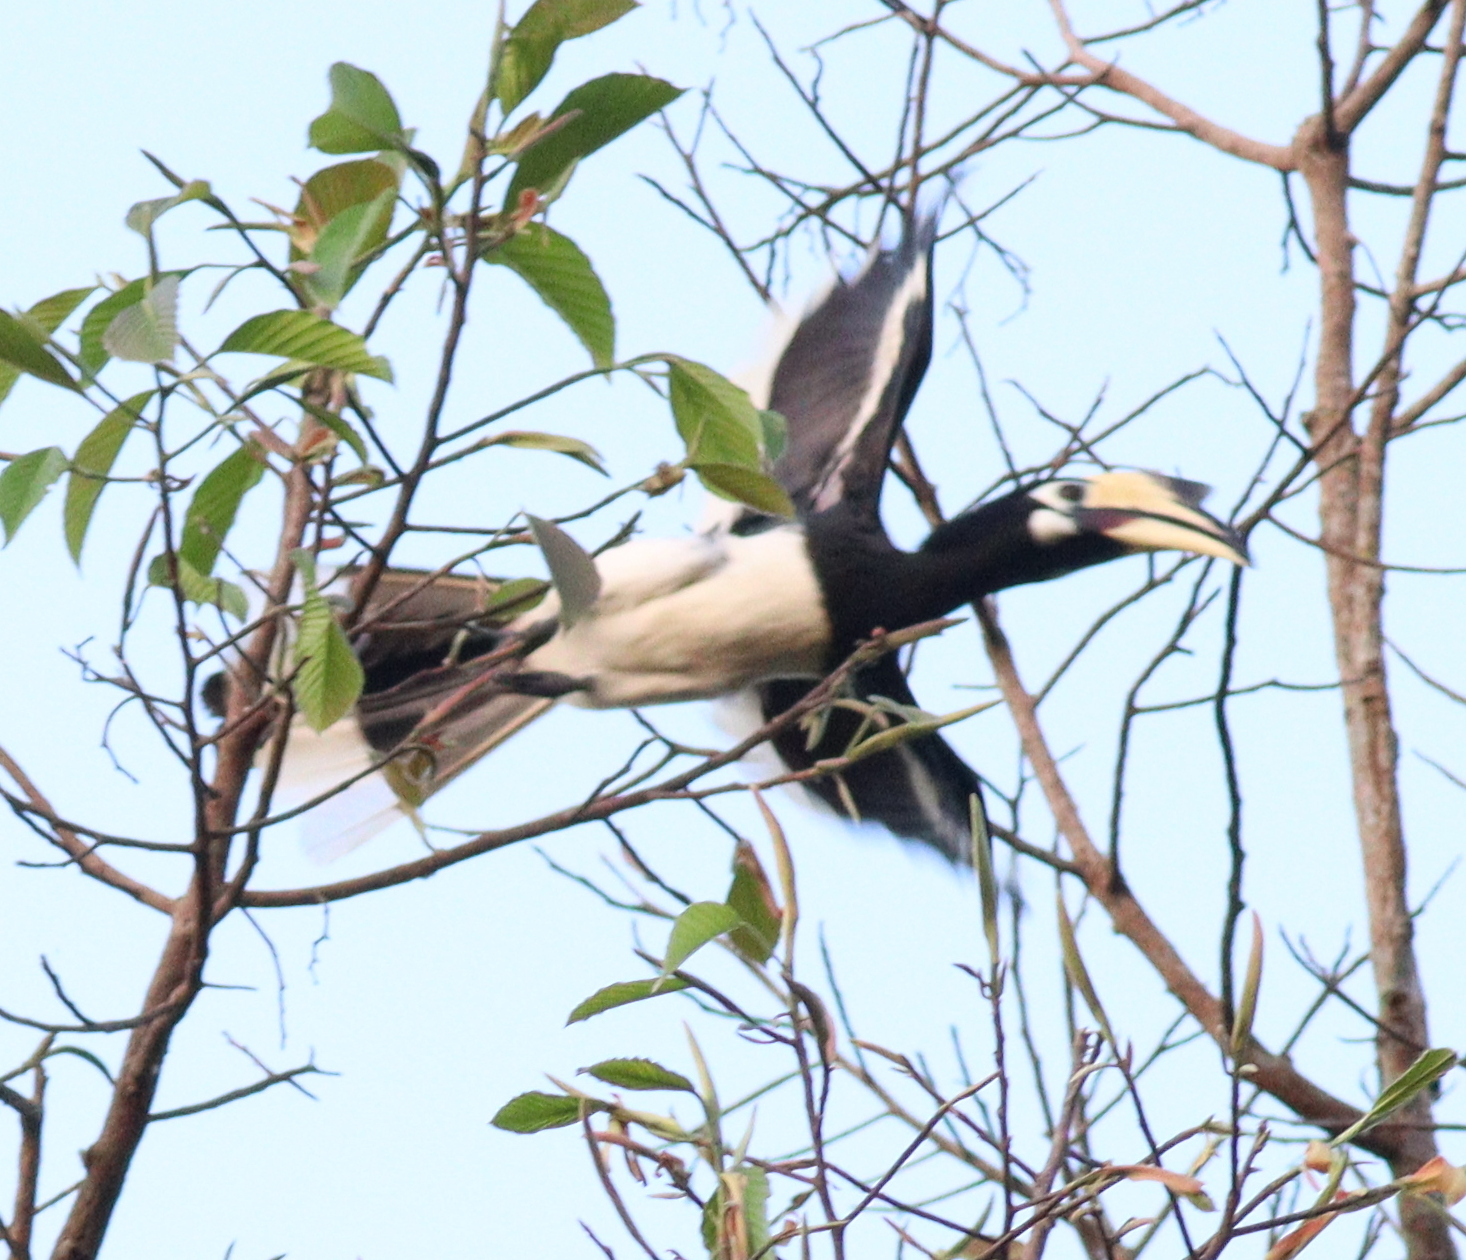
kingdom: Animalia
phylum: Chordata
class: Aves
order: Bucerotiformes
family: Bucerotidae
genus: Anthracoceros
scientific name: Anthracoceros albirostris
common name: Oriental pied-hornbill
